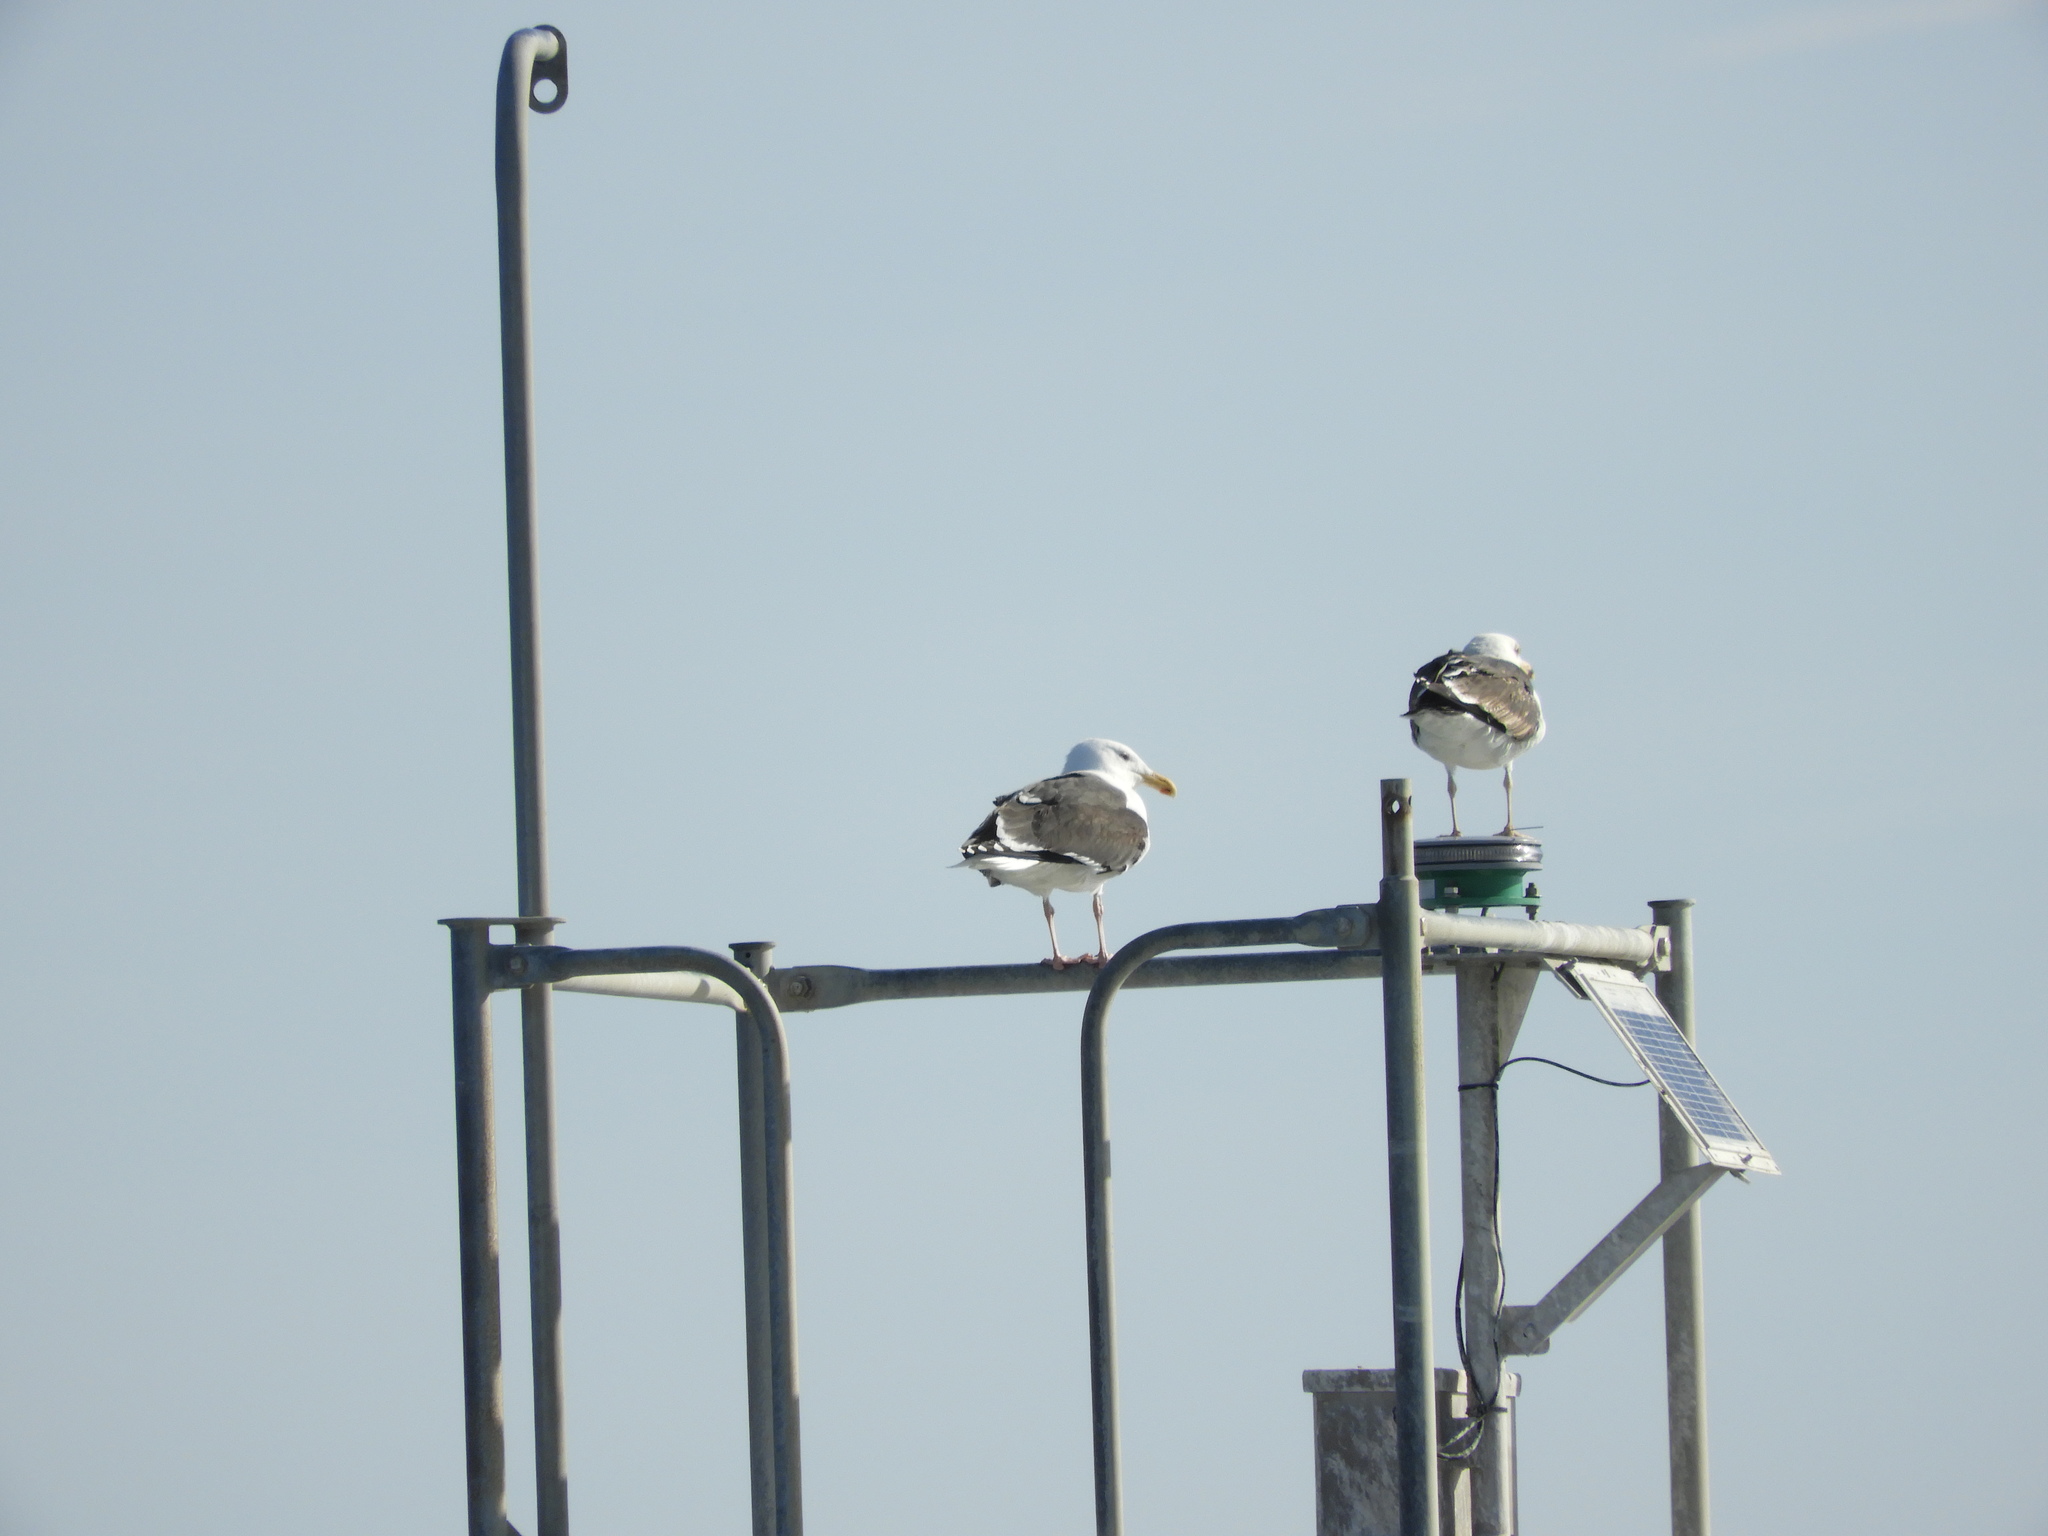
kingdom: Animalia
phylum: Chordata
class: Aves
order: Charadriiformes
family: Laridae
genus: Larus
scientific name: Larus marinus
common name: Great black-backed gull
